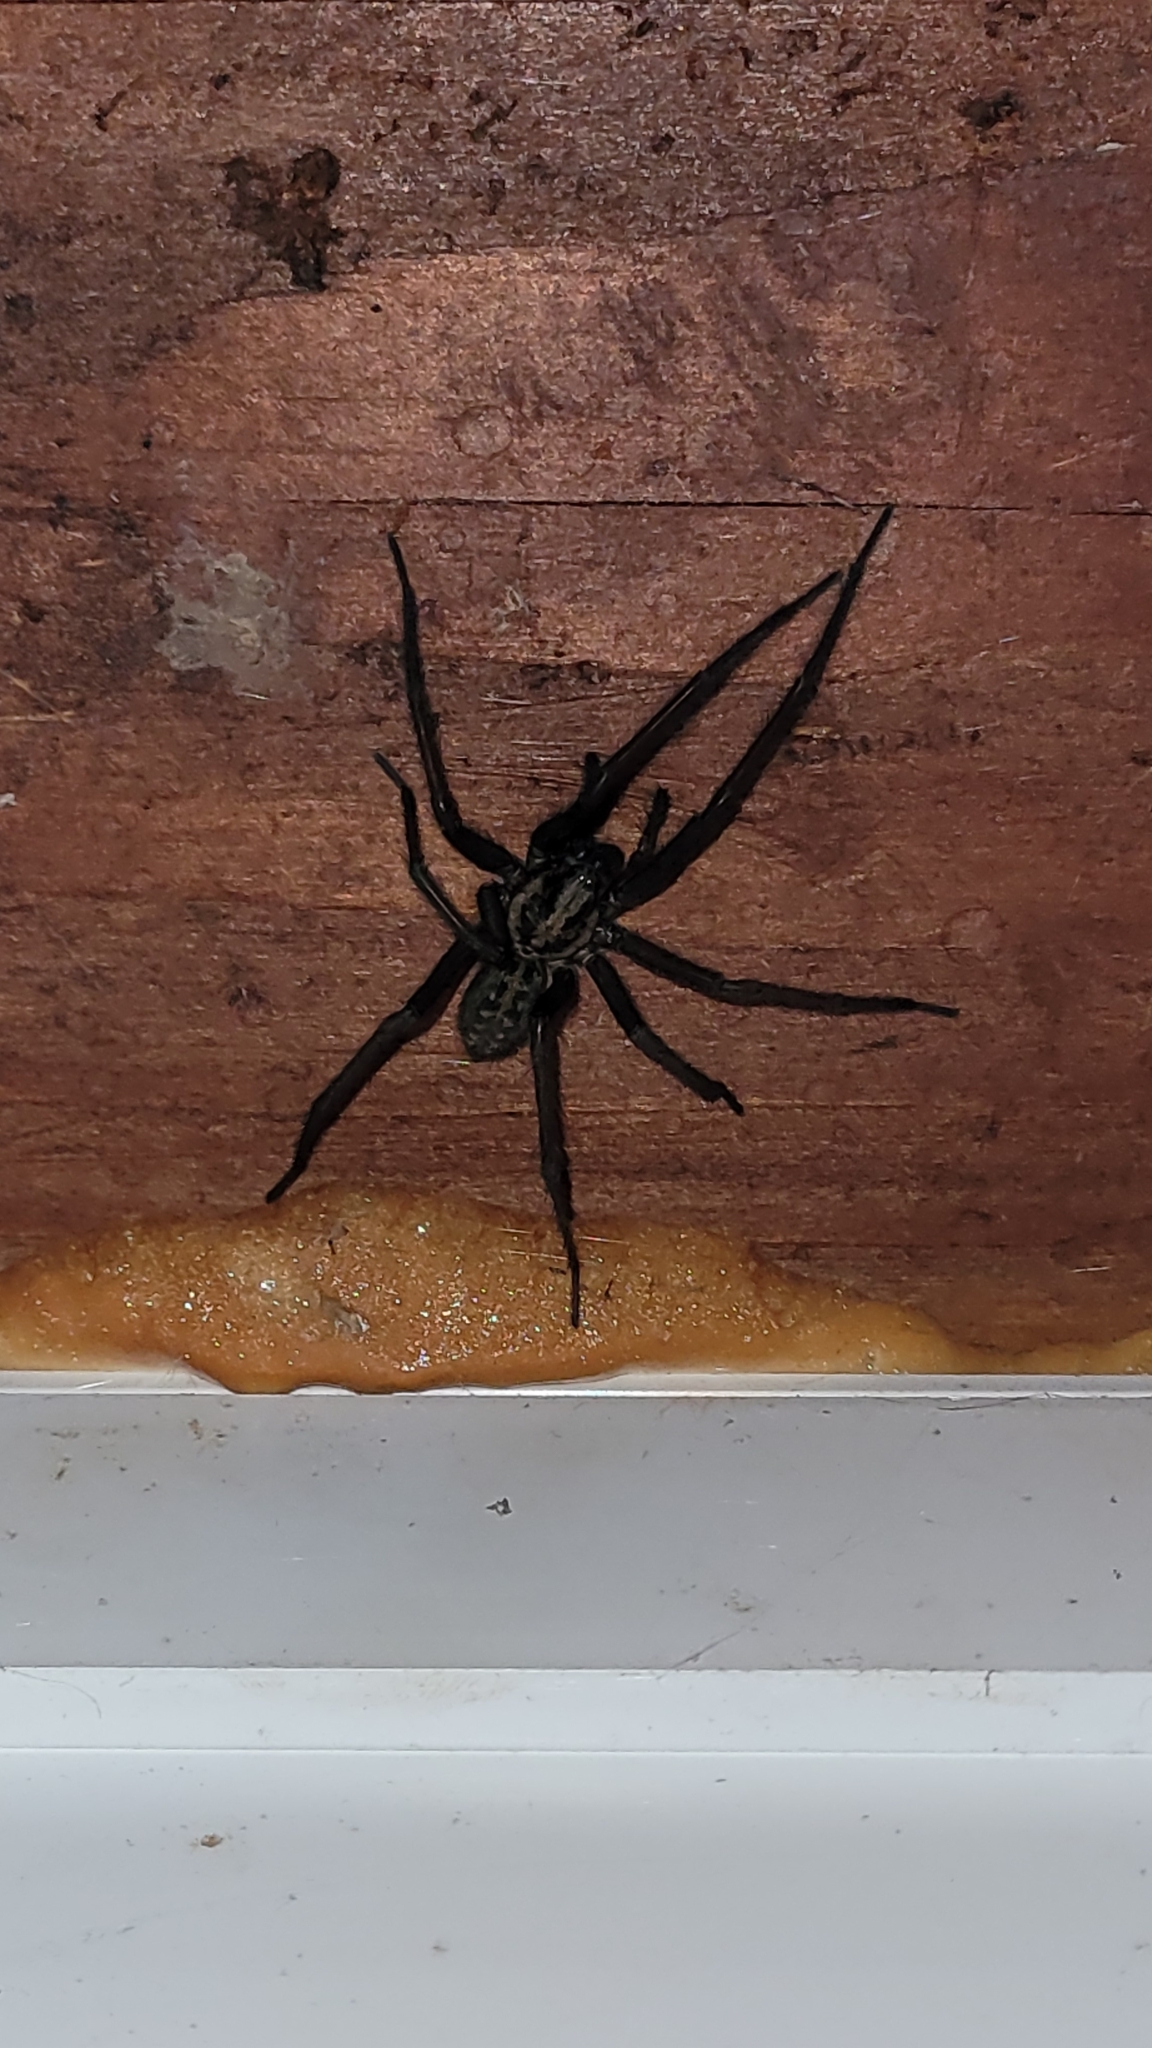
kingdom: Animalia
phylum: Arthropoda
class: Arachnida
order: Araneae
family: Agelenidae
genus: Eratigena
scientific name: Eratigena duellica
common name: Giant house spider
